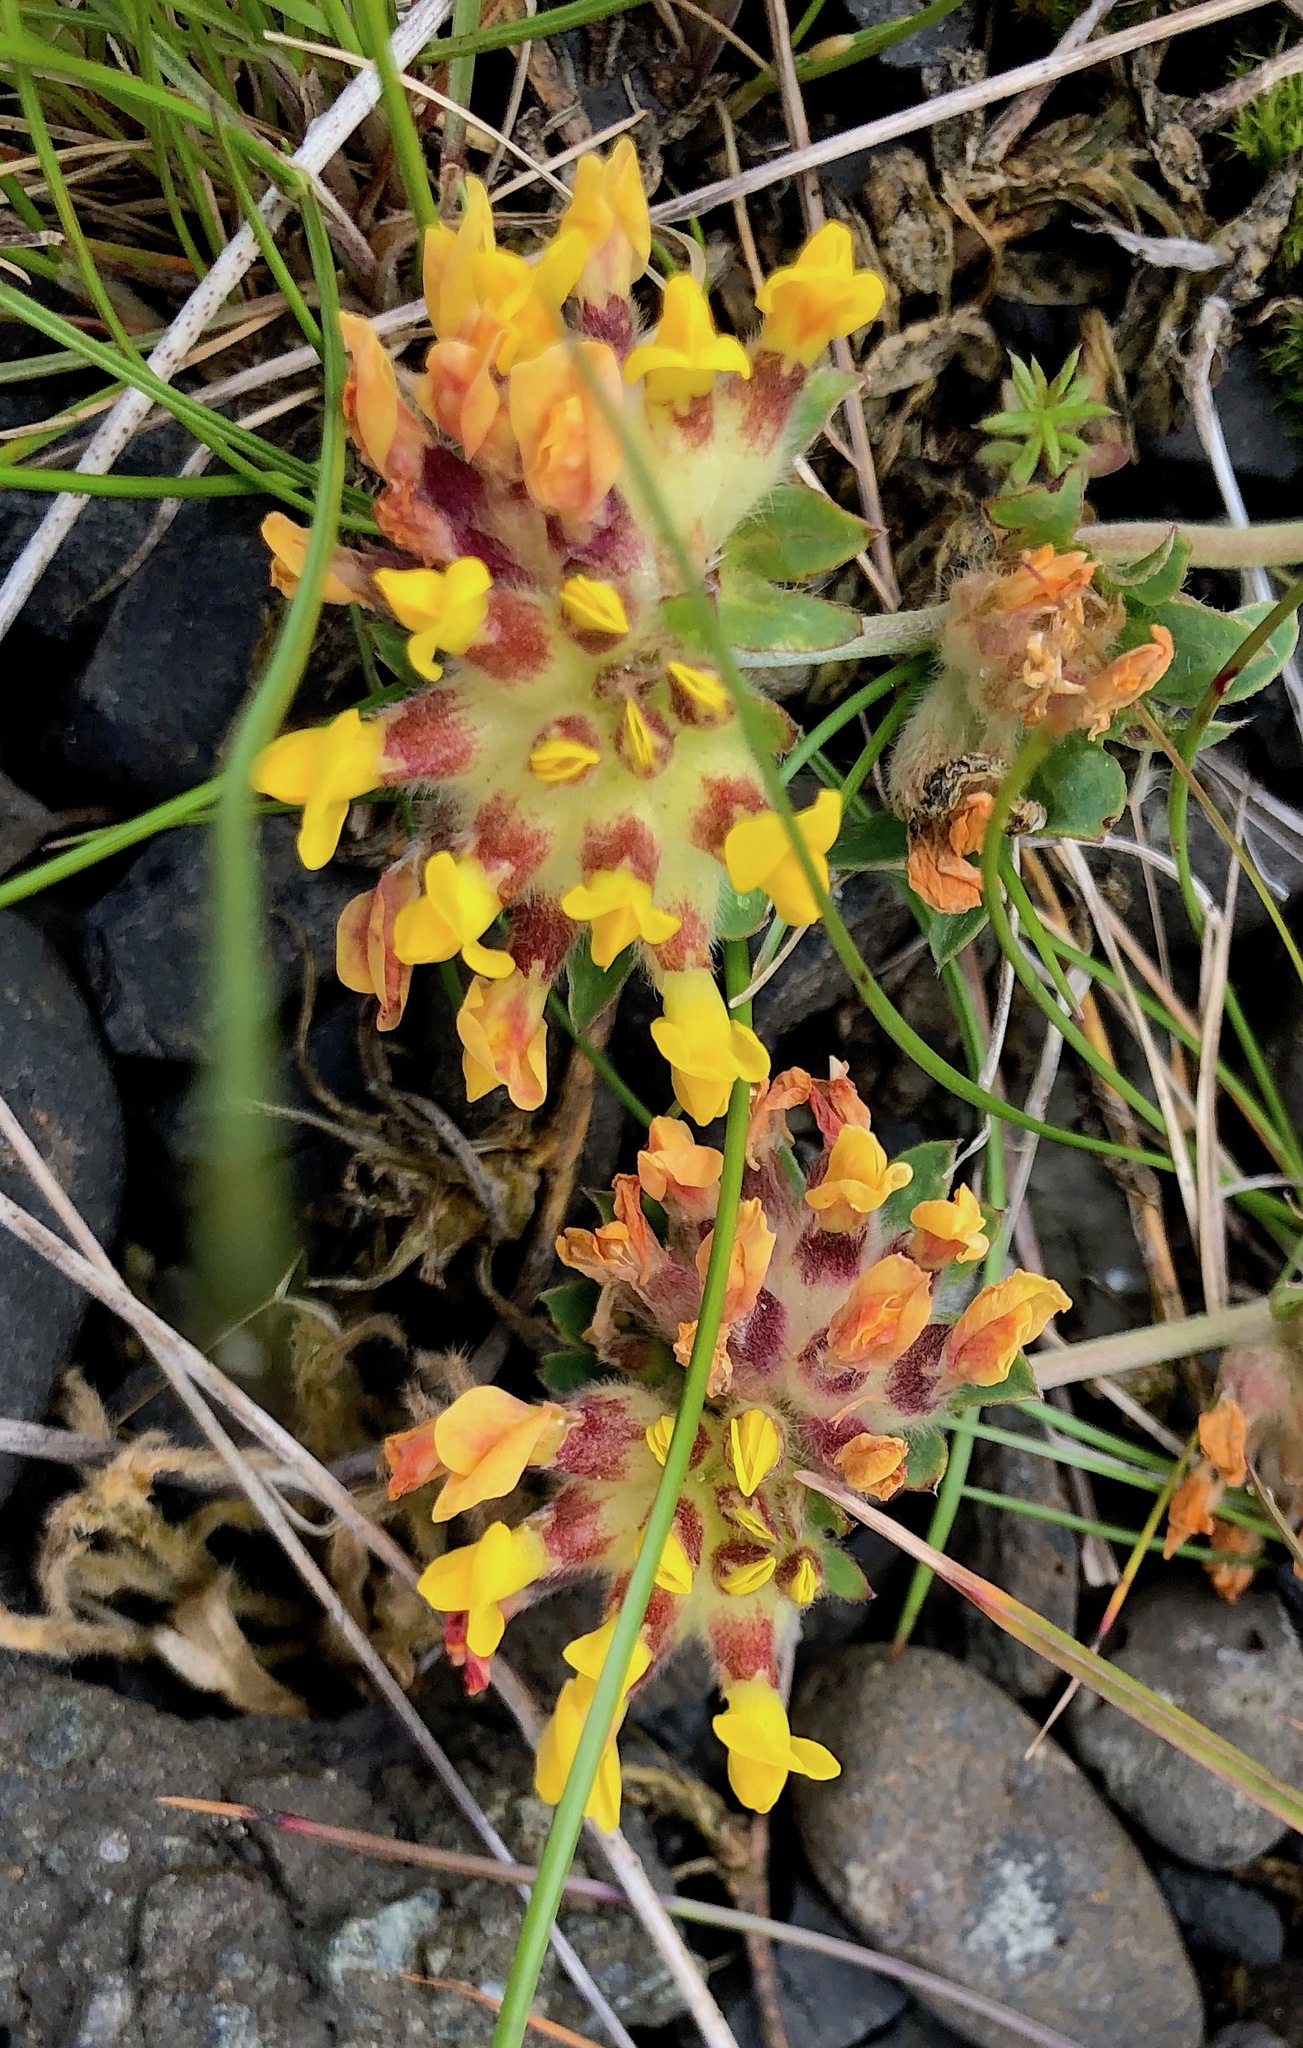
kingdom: Plantae
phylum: Tracheophyta
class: Magnoliopsida
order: Fabales
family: Fabaceae
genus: Anthyllis
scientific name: Anthyllis vulneraria
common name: Kidney vetch
